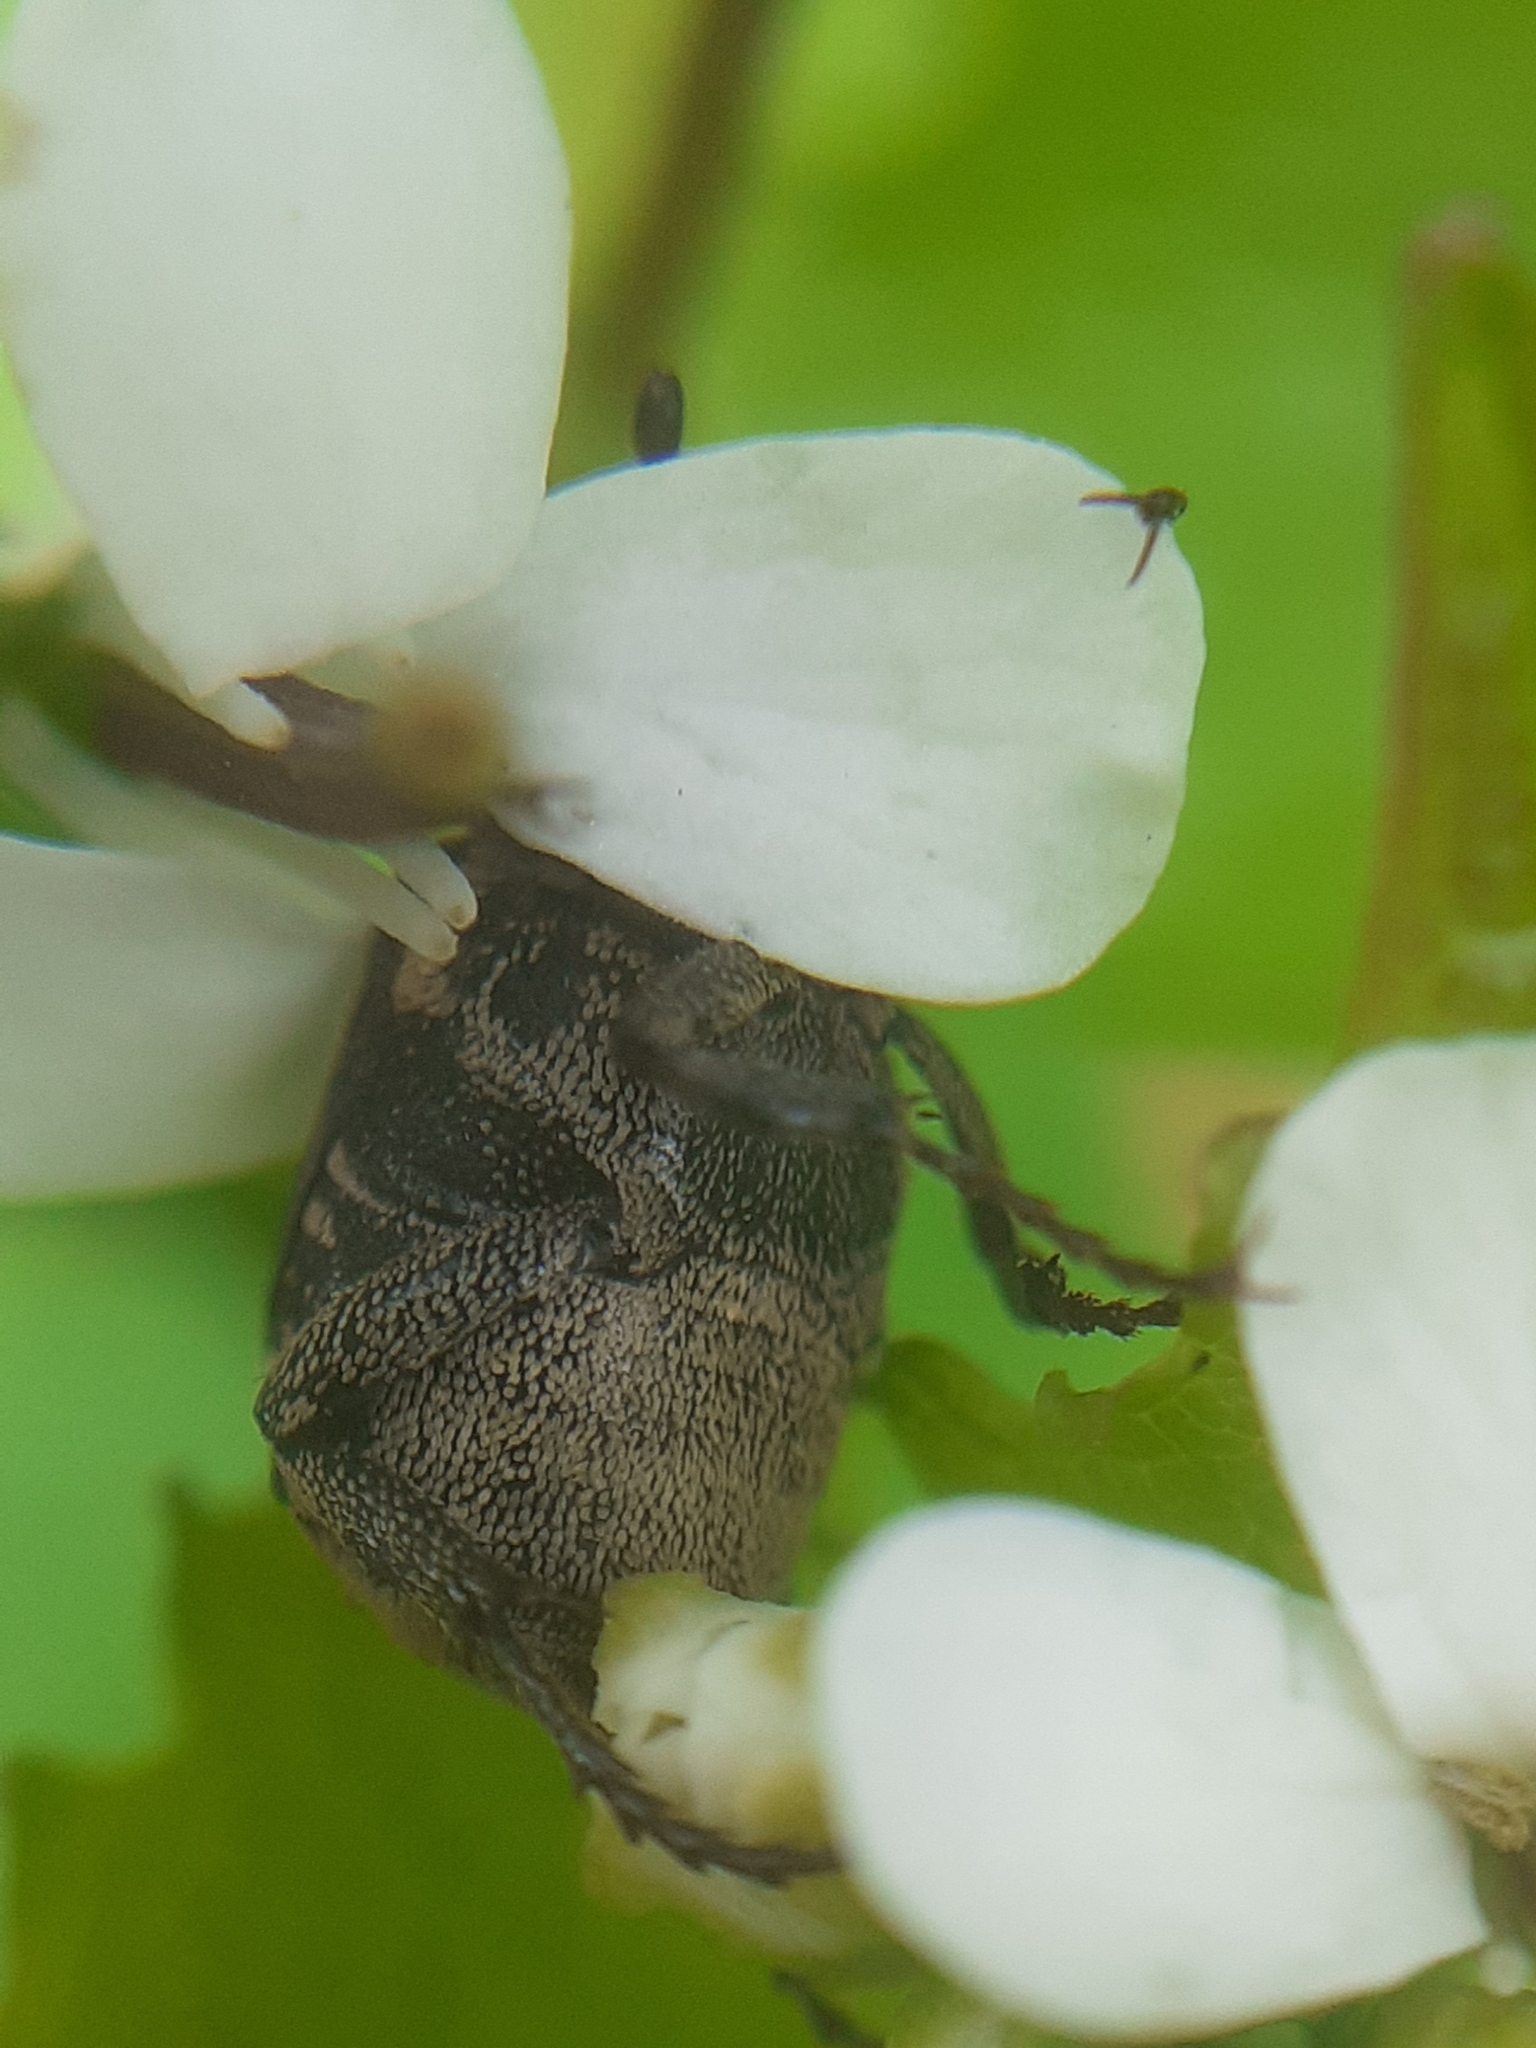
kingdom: Animalia
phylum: Arthropoda
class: Insecta
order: Coleoptera
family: Scarabaeidae
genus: Valgus
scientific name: Valgus hemipterus
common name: Bug flower chafer
